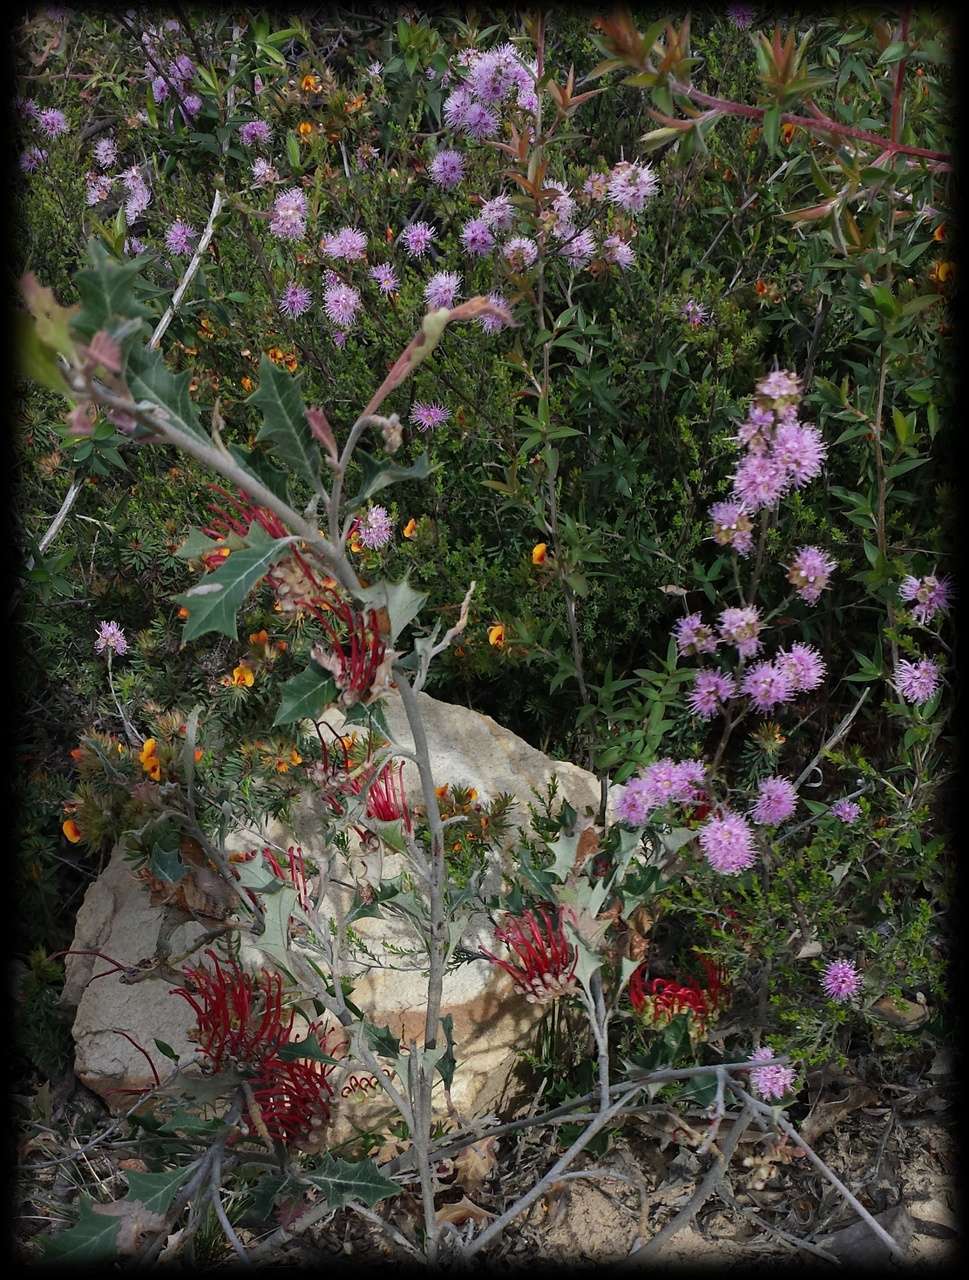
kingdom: Plantae
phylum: Tracheophyta
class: Magnoliopsida
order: Proteales
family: Proteaceae
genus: Grevillea
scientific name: Grevillea aquifolium
